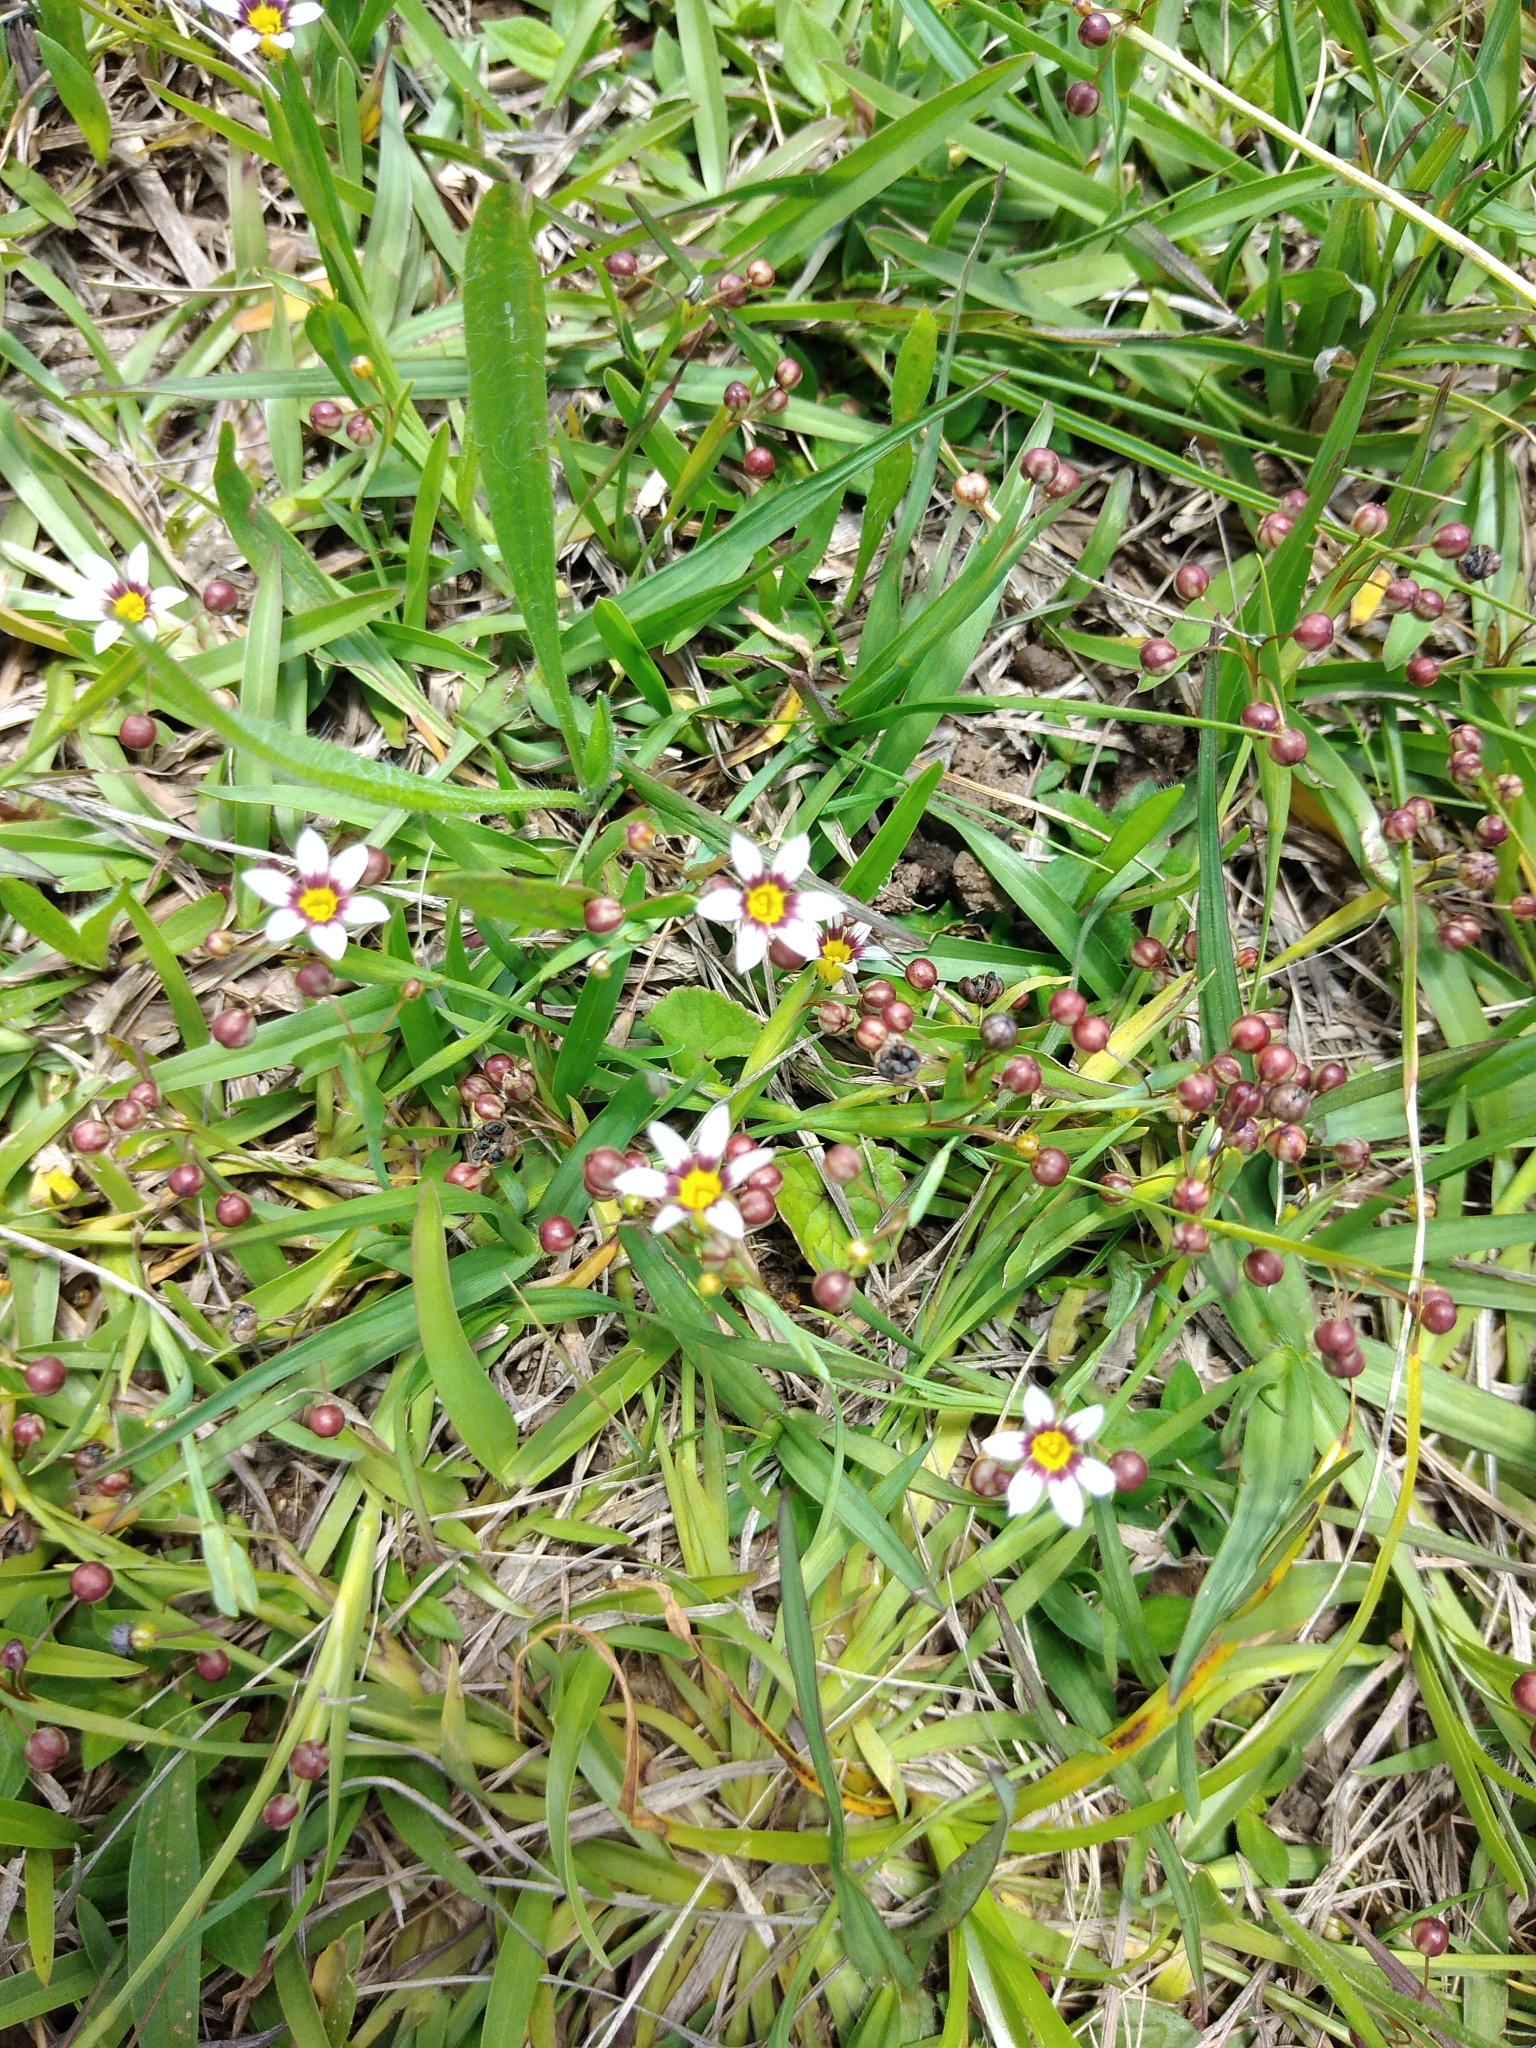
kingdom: Plantae
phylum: Tracheophyta
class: Liliopsida
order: Asparagales
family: Iridaceae
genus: Sisyrinchium
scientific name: Sisyrinchium micranthum
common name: Bermuda pigroot
